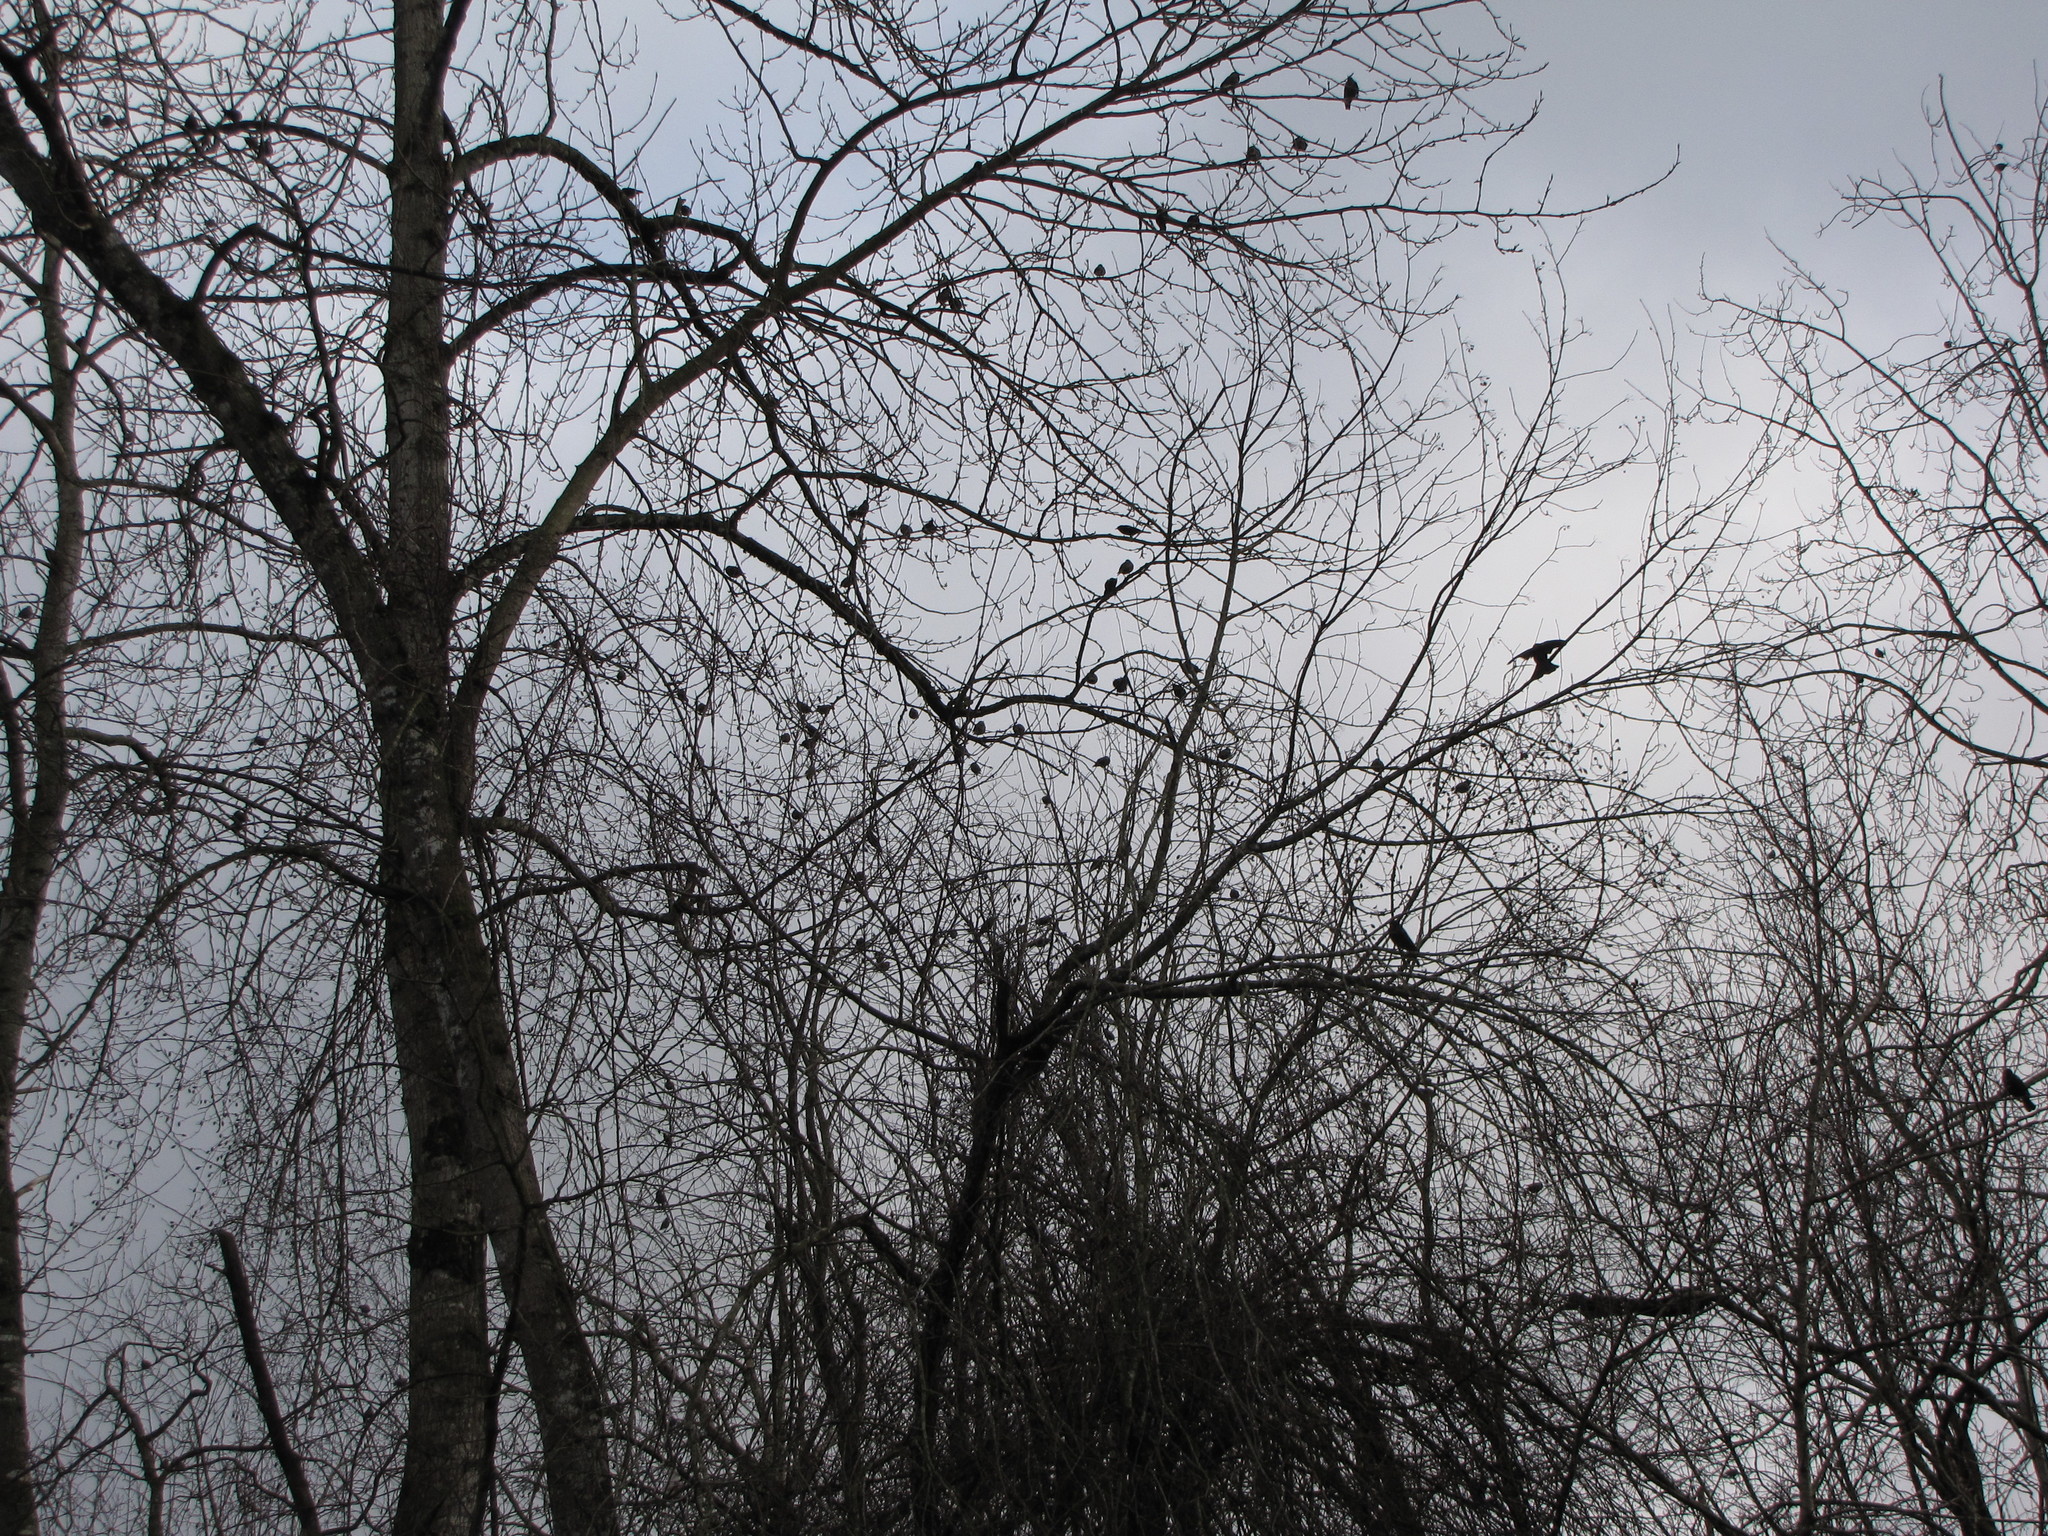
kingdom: Animalia
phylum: Chordata
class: Aves
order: Passeriformes
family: Corvidae
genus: Corvus
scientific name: Corvus brachyrhynchos
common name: American crow
